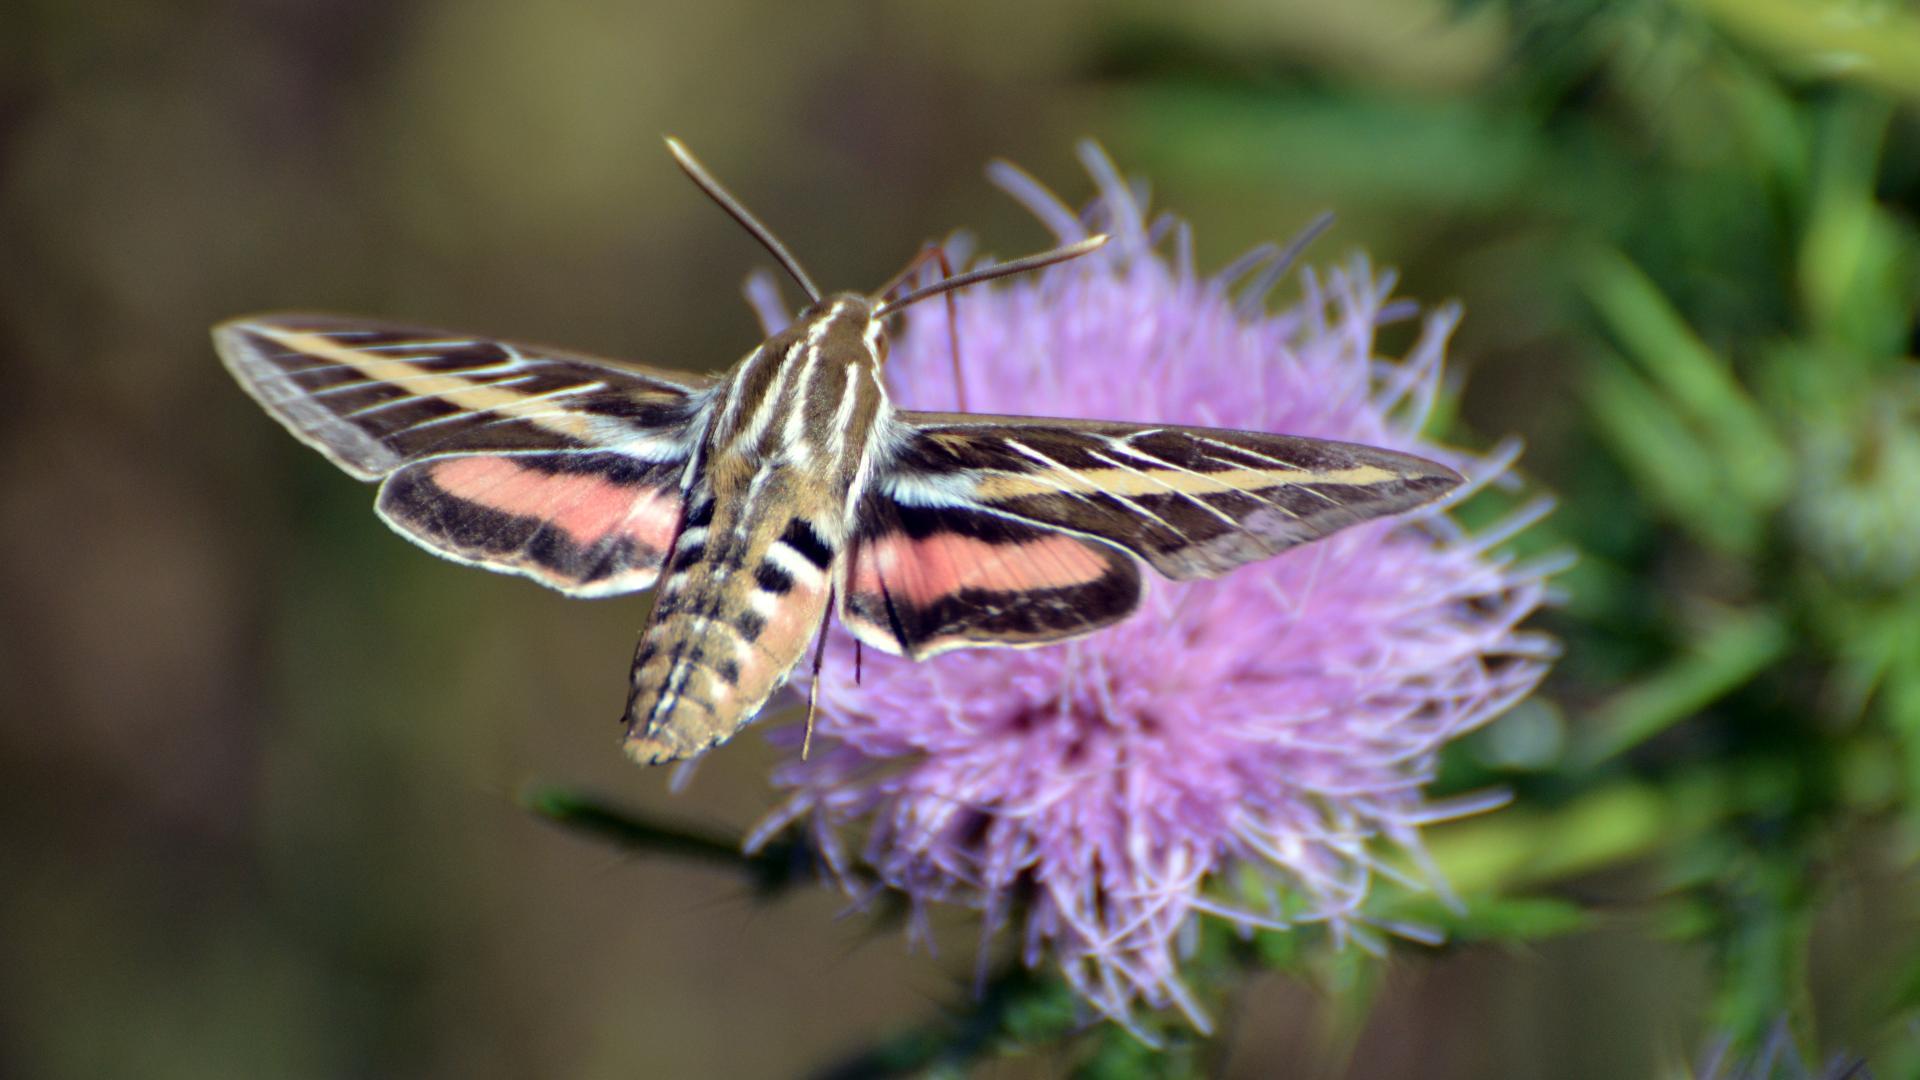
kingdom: Animalia
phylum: Arthropoda
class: Insecta
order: Lepidoptera
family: Sphingidae
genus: Hyles
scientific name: Hyles lineata
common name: White-lined sphinx
